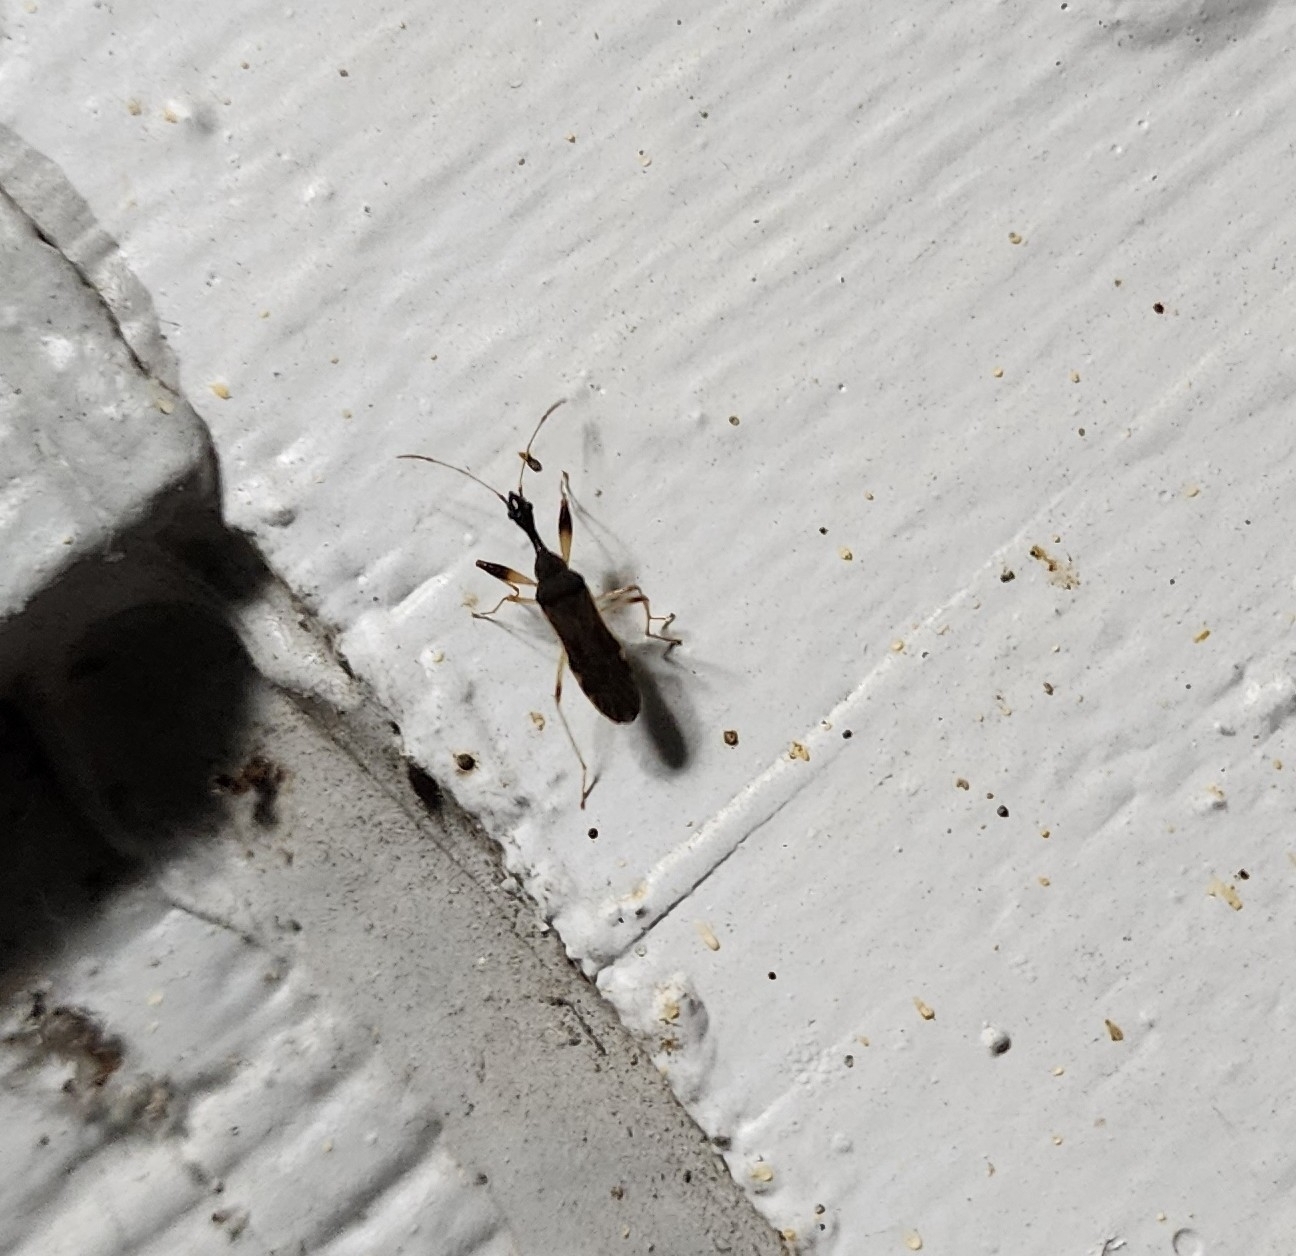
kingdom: Animalia
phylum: Arthropoda
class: Insecta
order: Hemiptera
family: Rhyparochromidae
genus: Myodocha
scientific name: Myodocha serripes
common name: Long-necked seed bug
